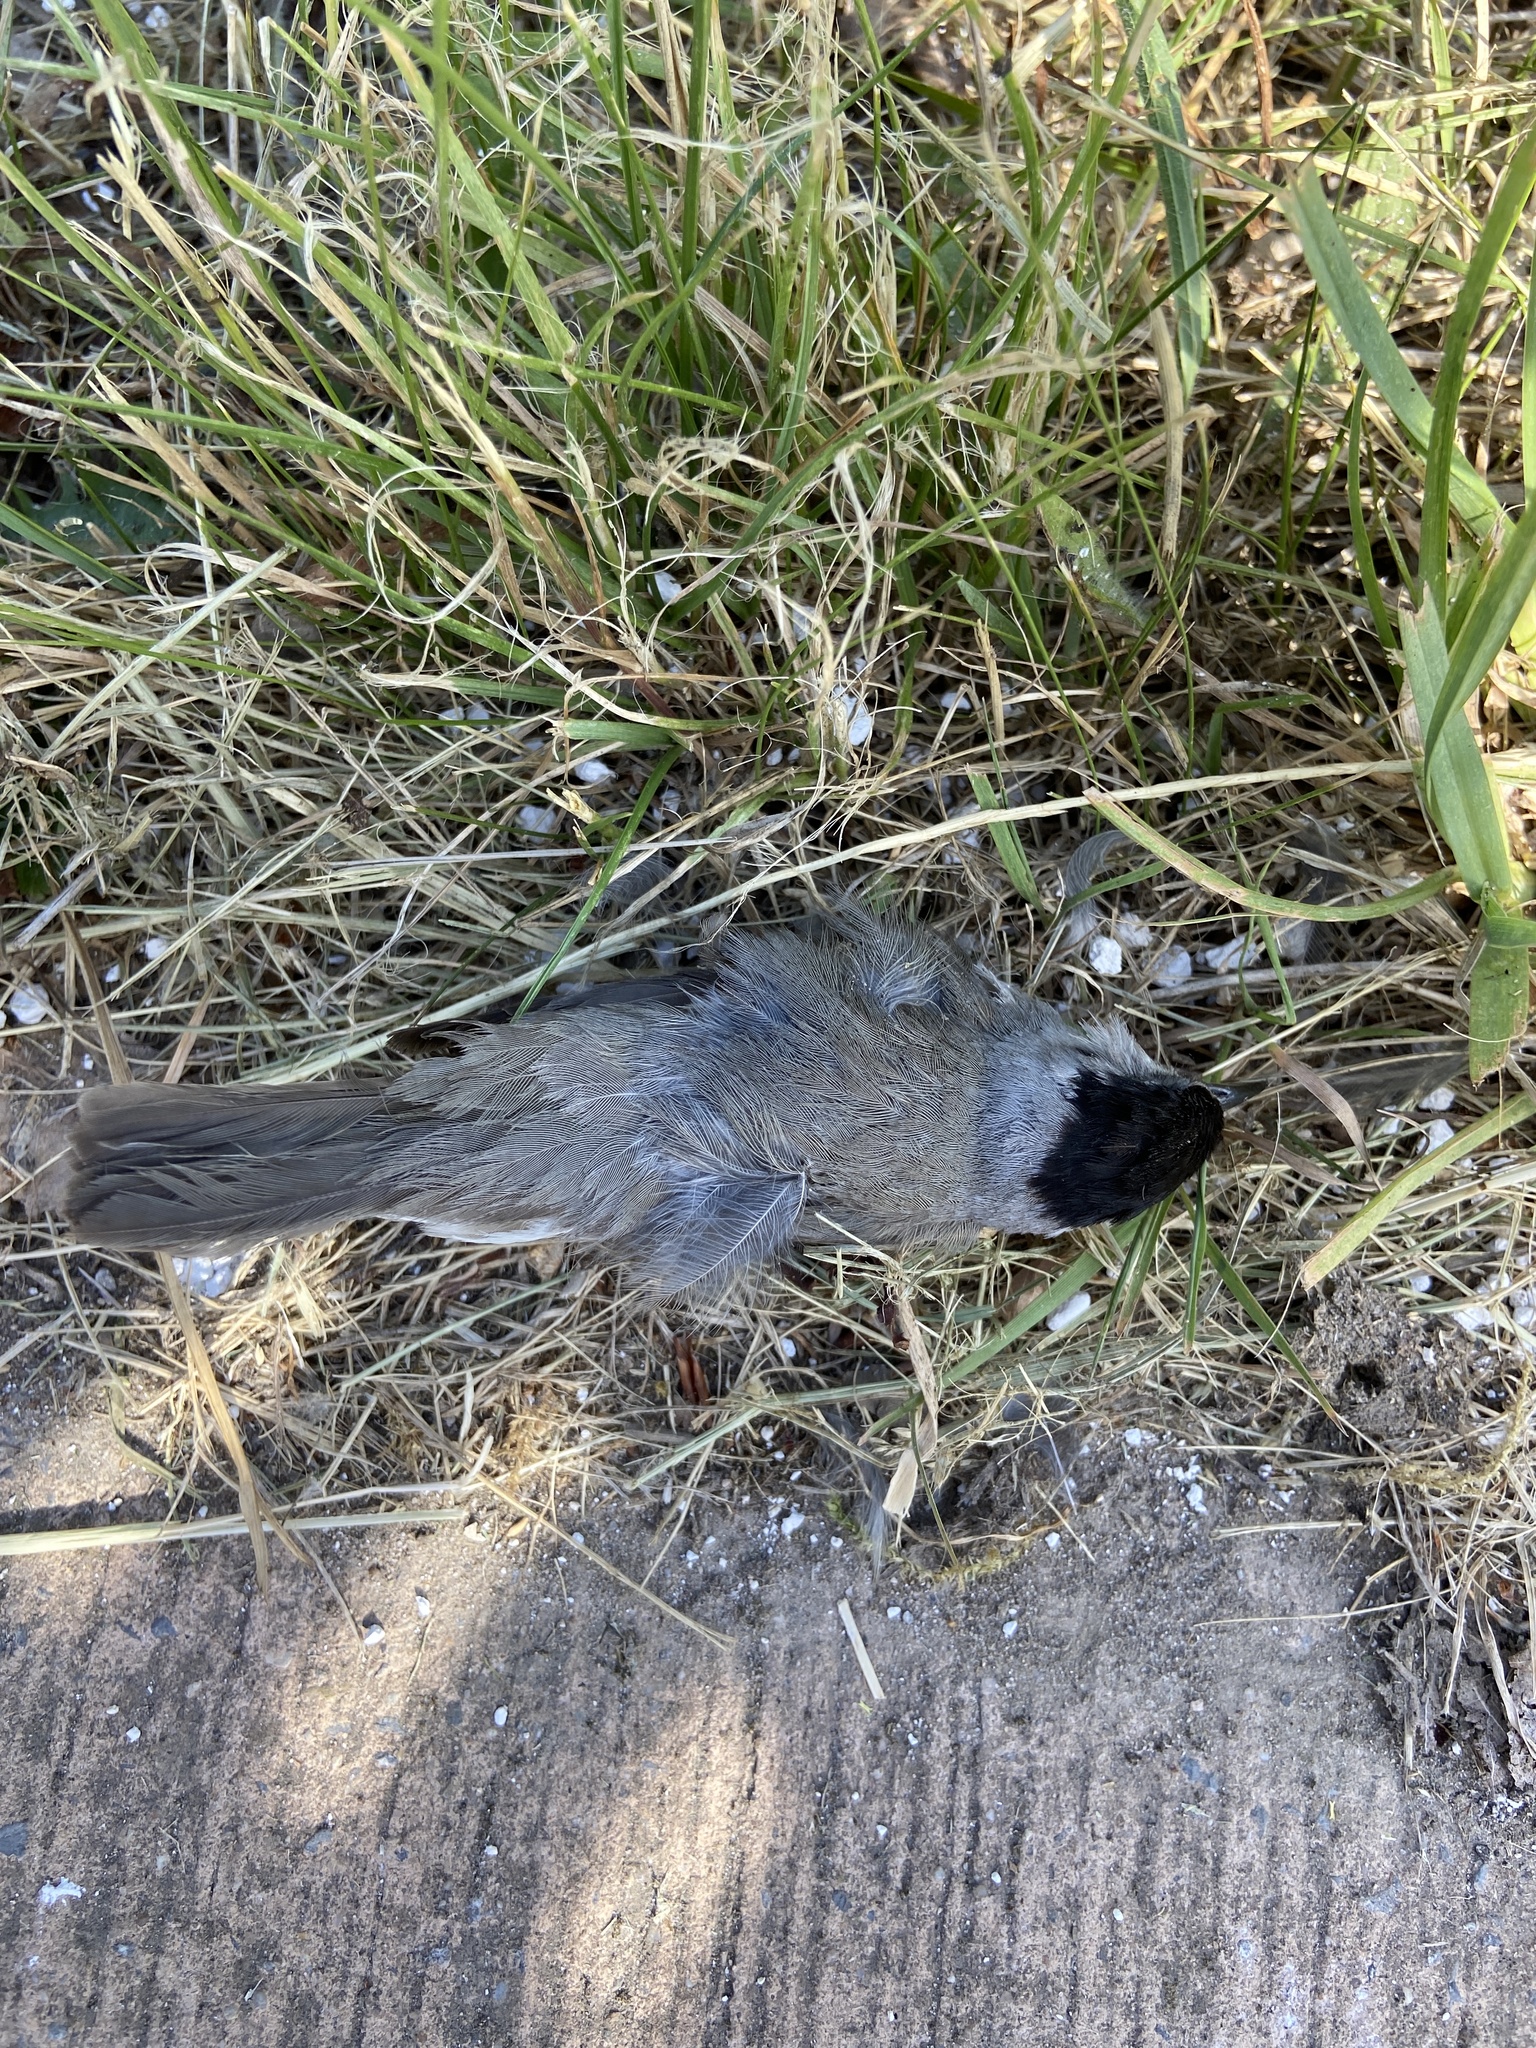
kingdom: Animalia
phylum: Chordata
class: Aves
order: Passeriformes
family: Sylviidae
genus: Sylvia
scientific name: Sylvia atricapilla
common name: Eurasian blackcap
